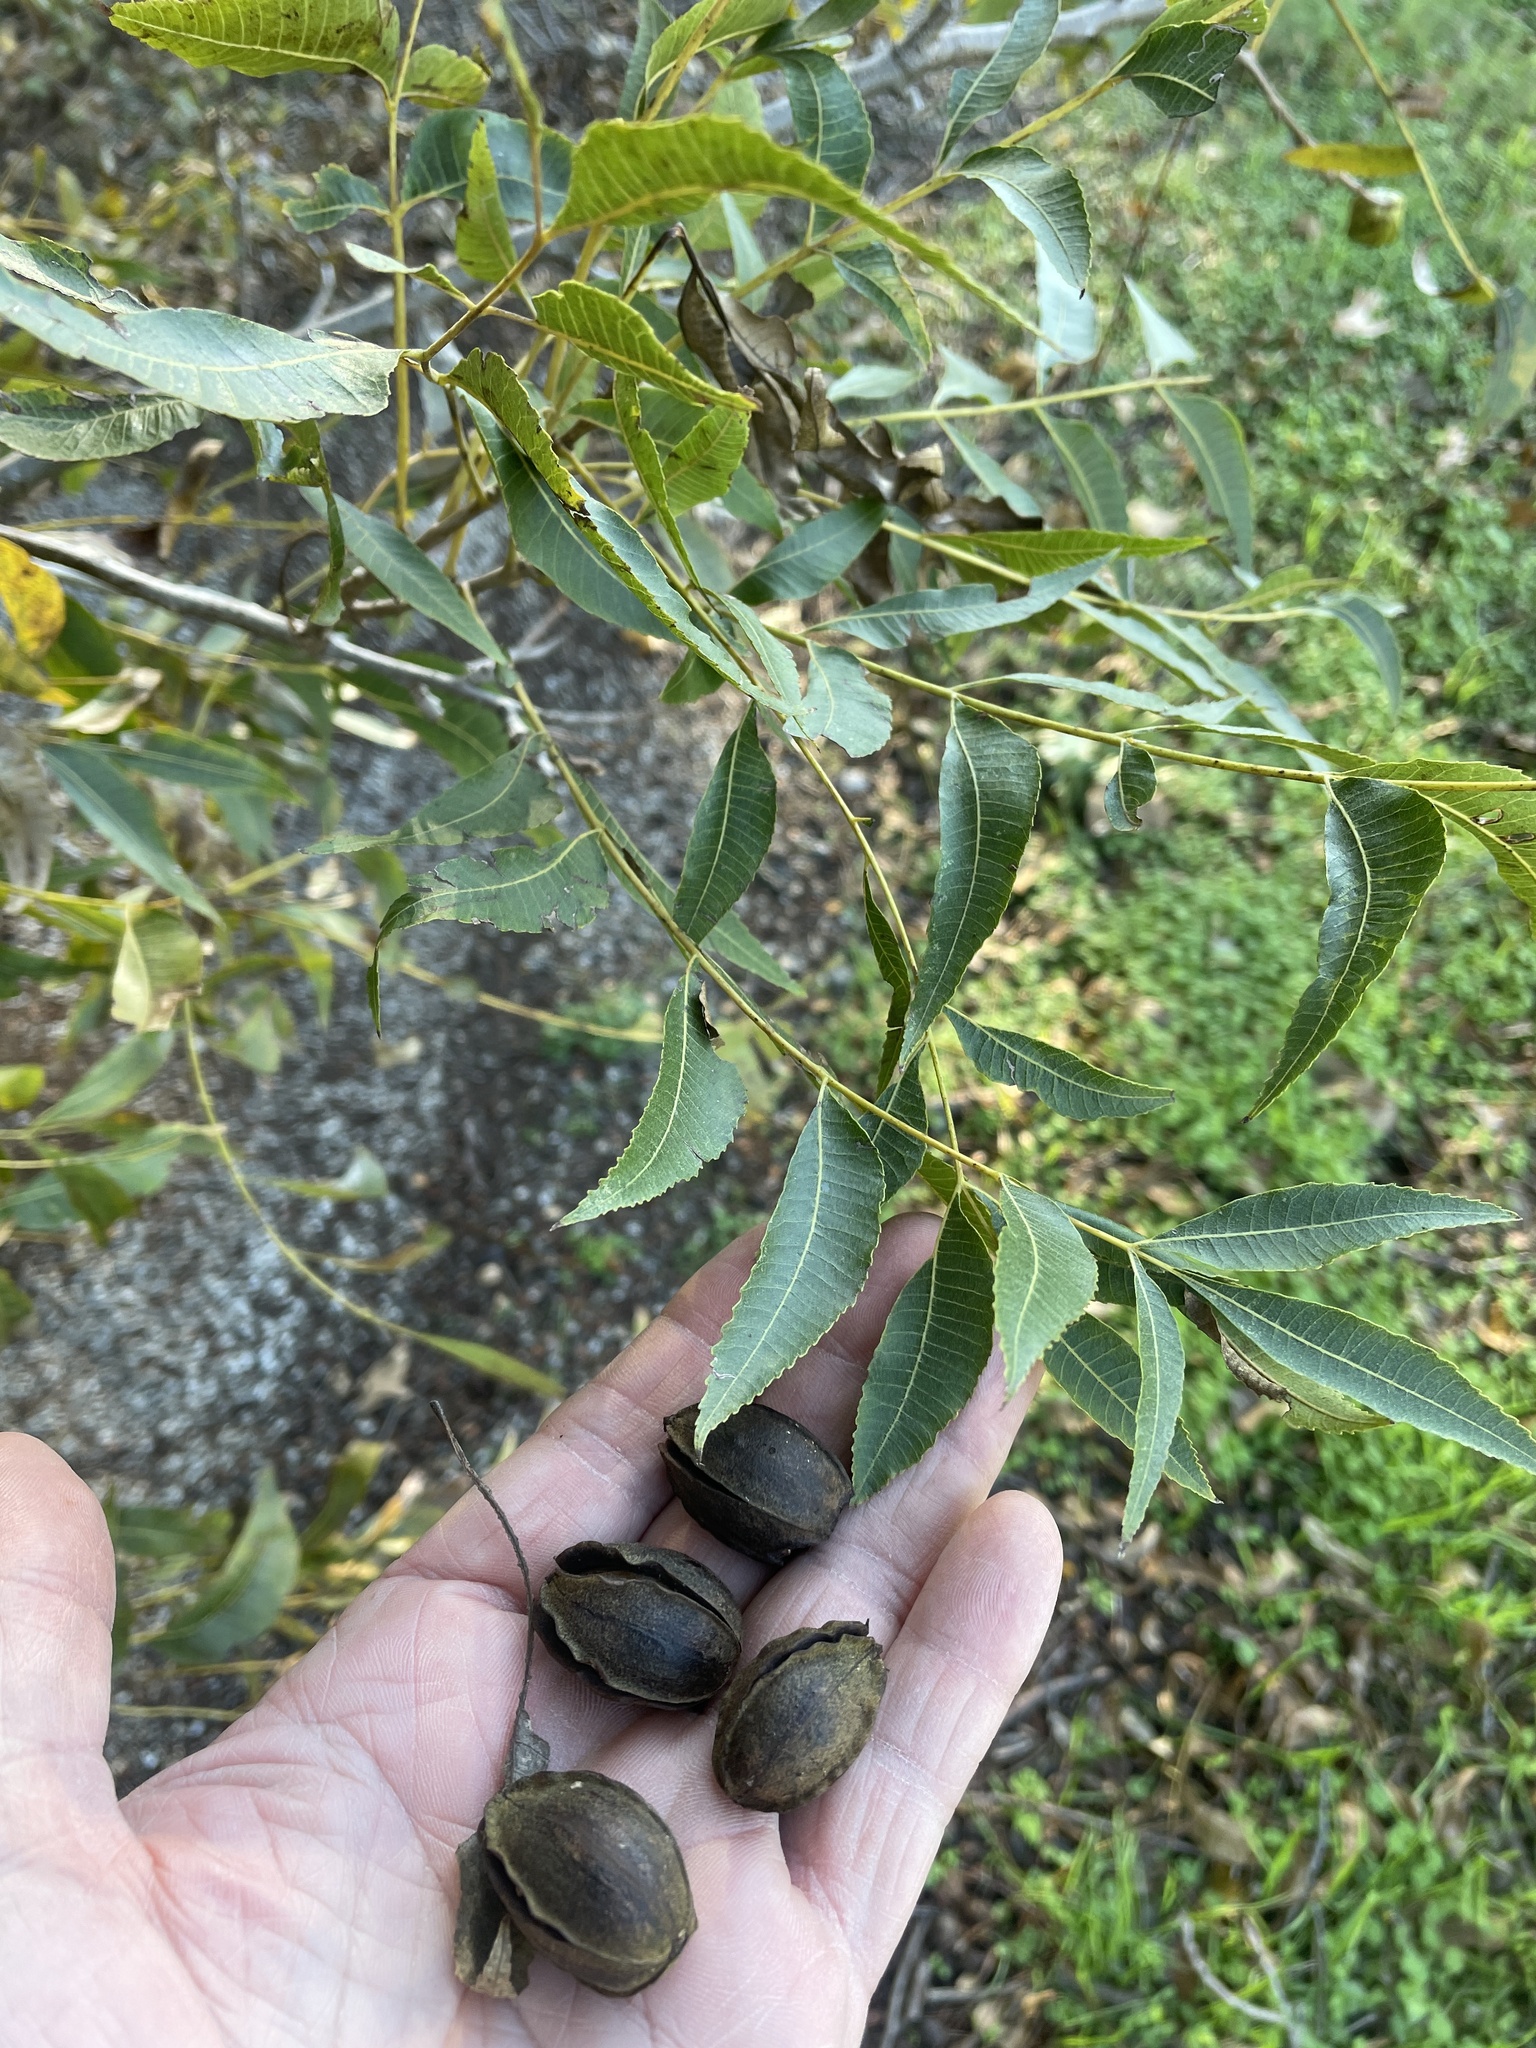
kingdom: Plantae
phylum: Tracheophyta
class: Magnoliopsida
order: Fagales
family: Juglandaceae
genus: Carya
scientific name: Carya illinoinensis
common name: Pecan
